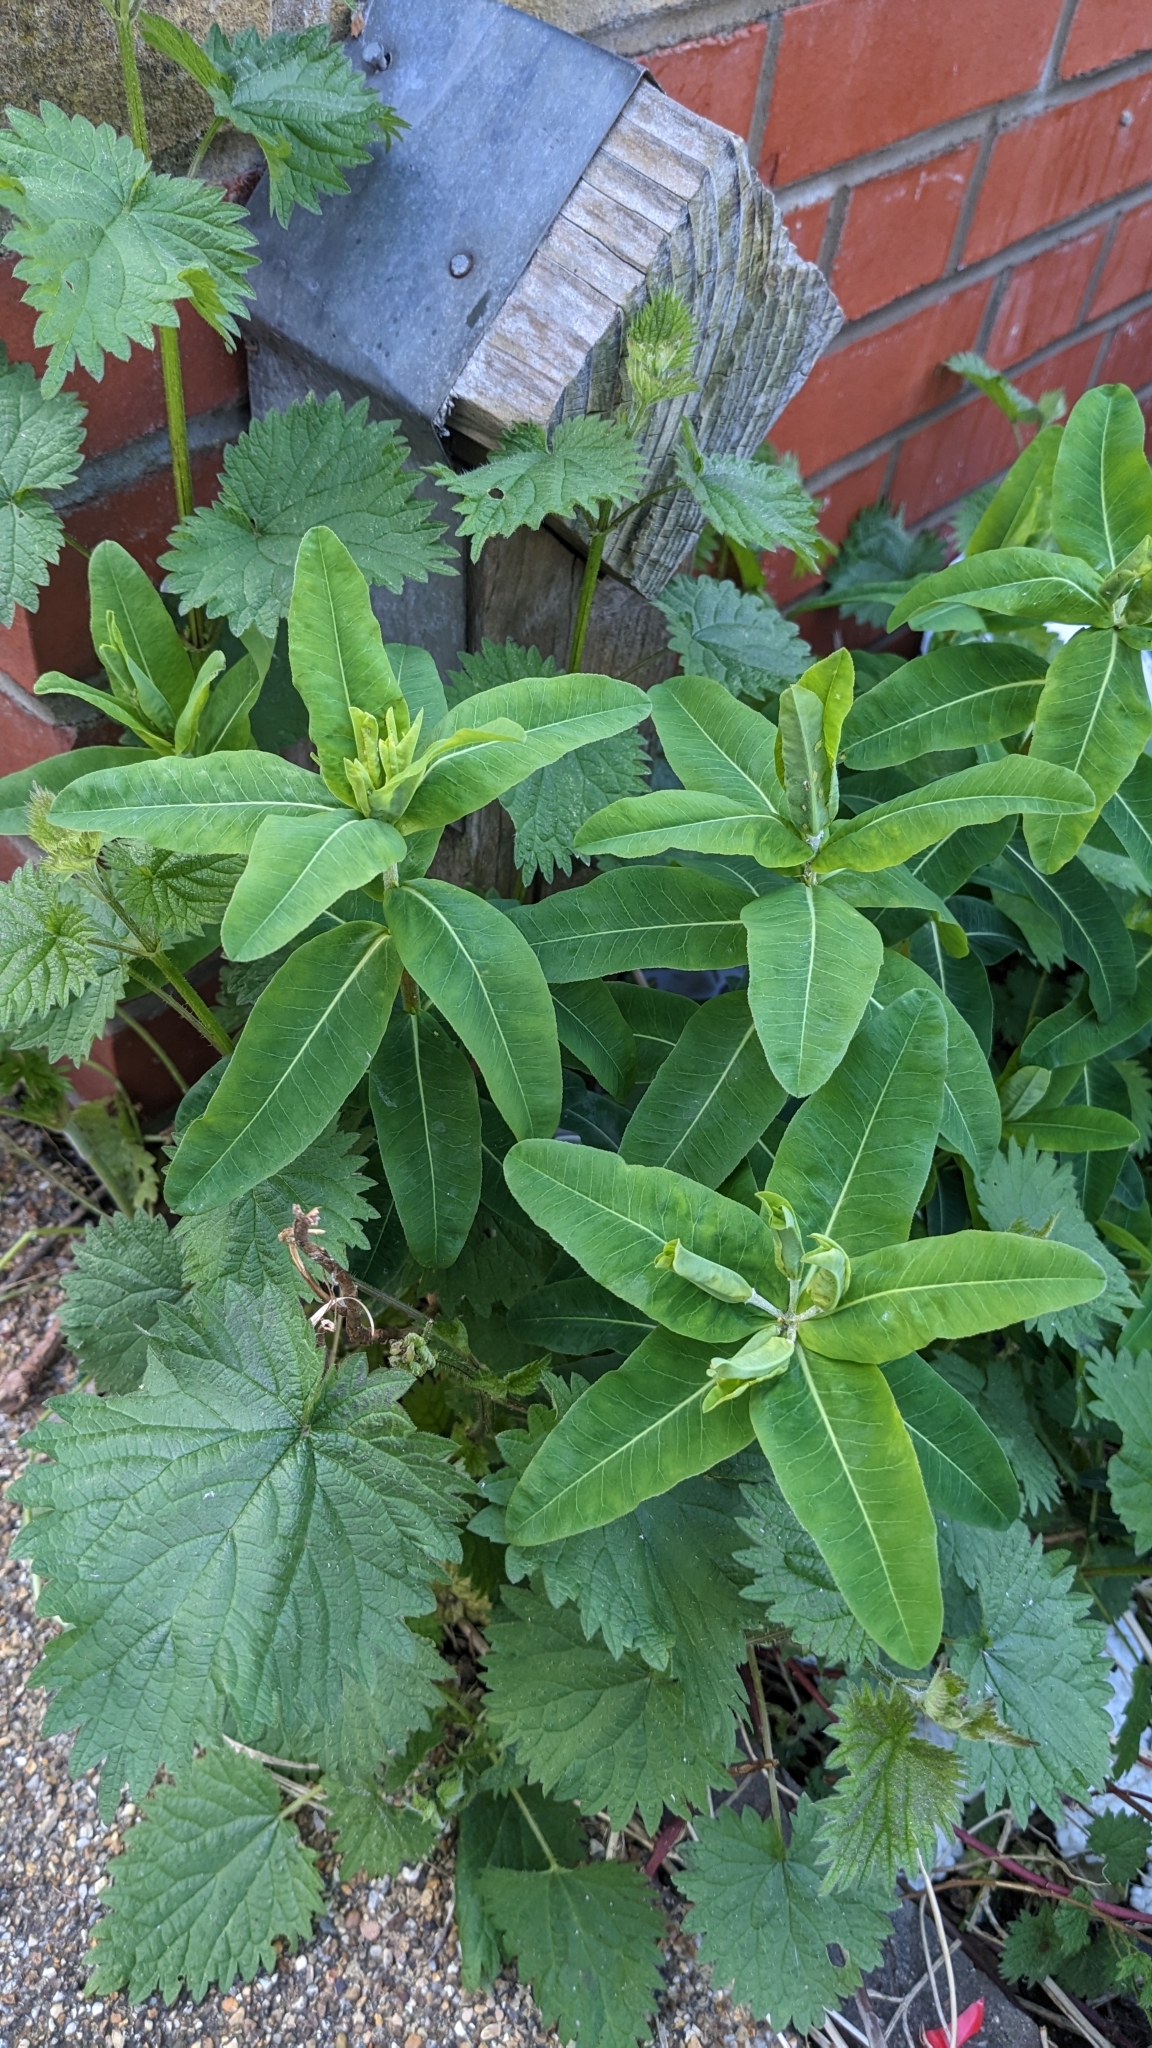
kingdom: Plantae
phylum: Tracheophyta
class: Magnoliopsida
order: Malpighiales
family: Euphorbiaceae
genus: Euphorbia
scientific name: Euphorbia oblongata
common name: Balkan spurge
